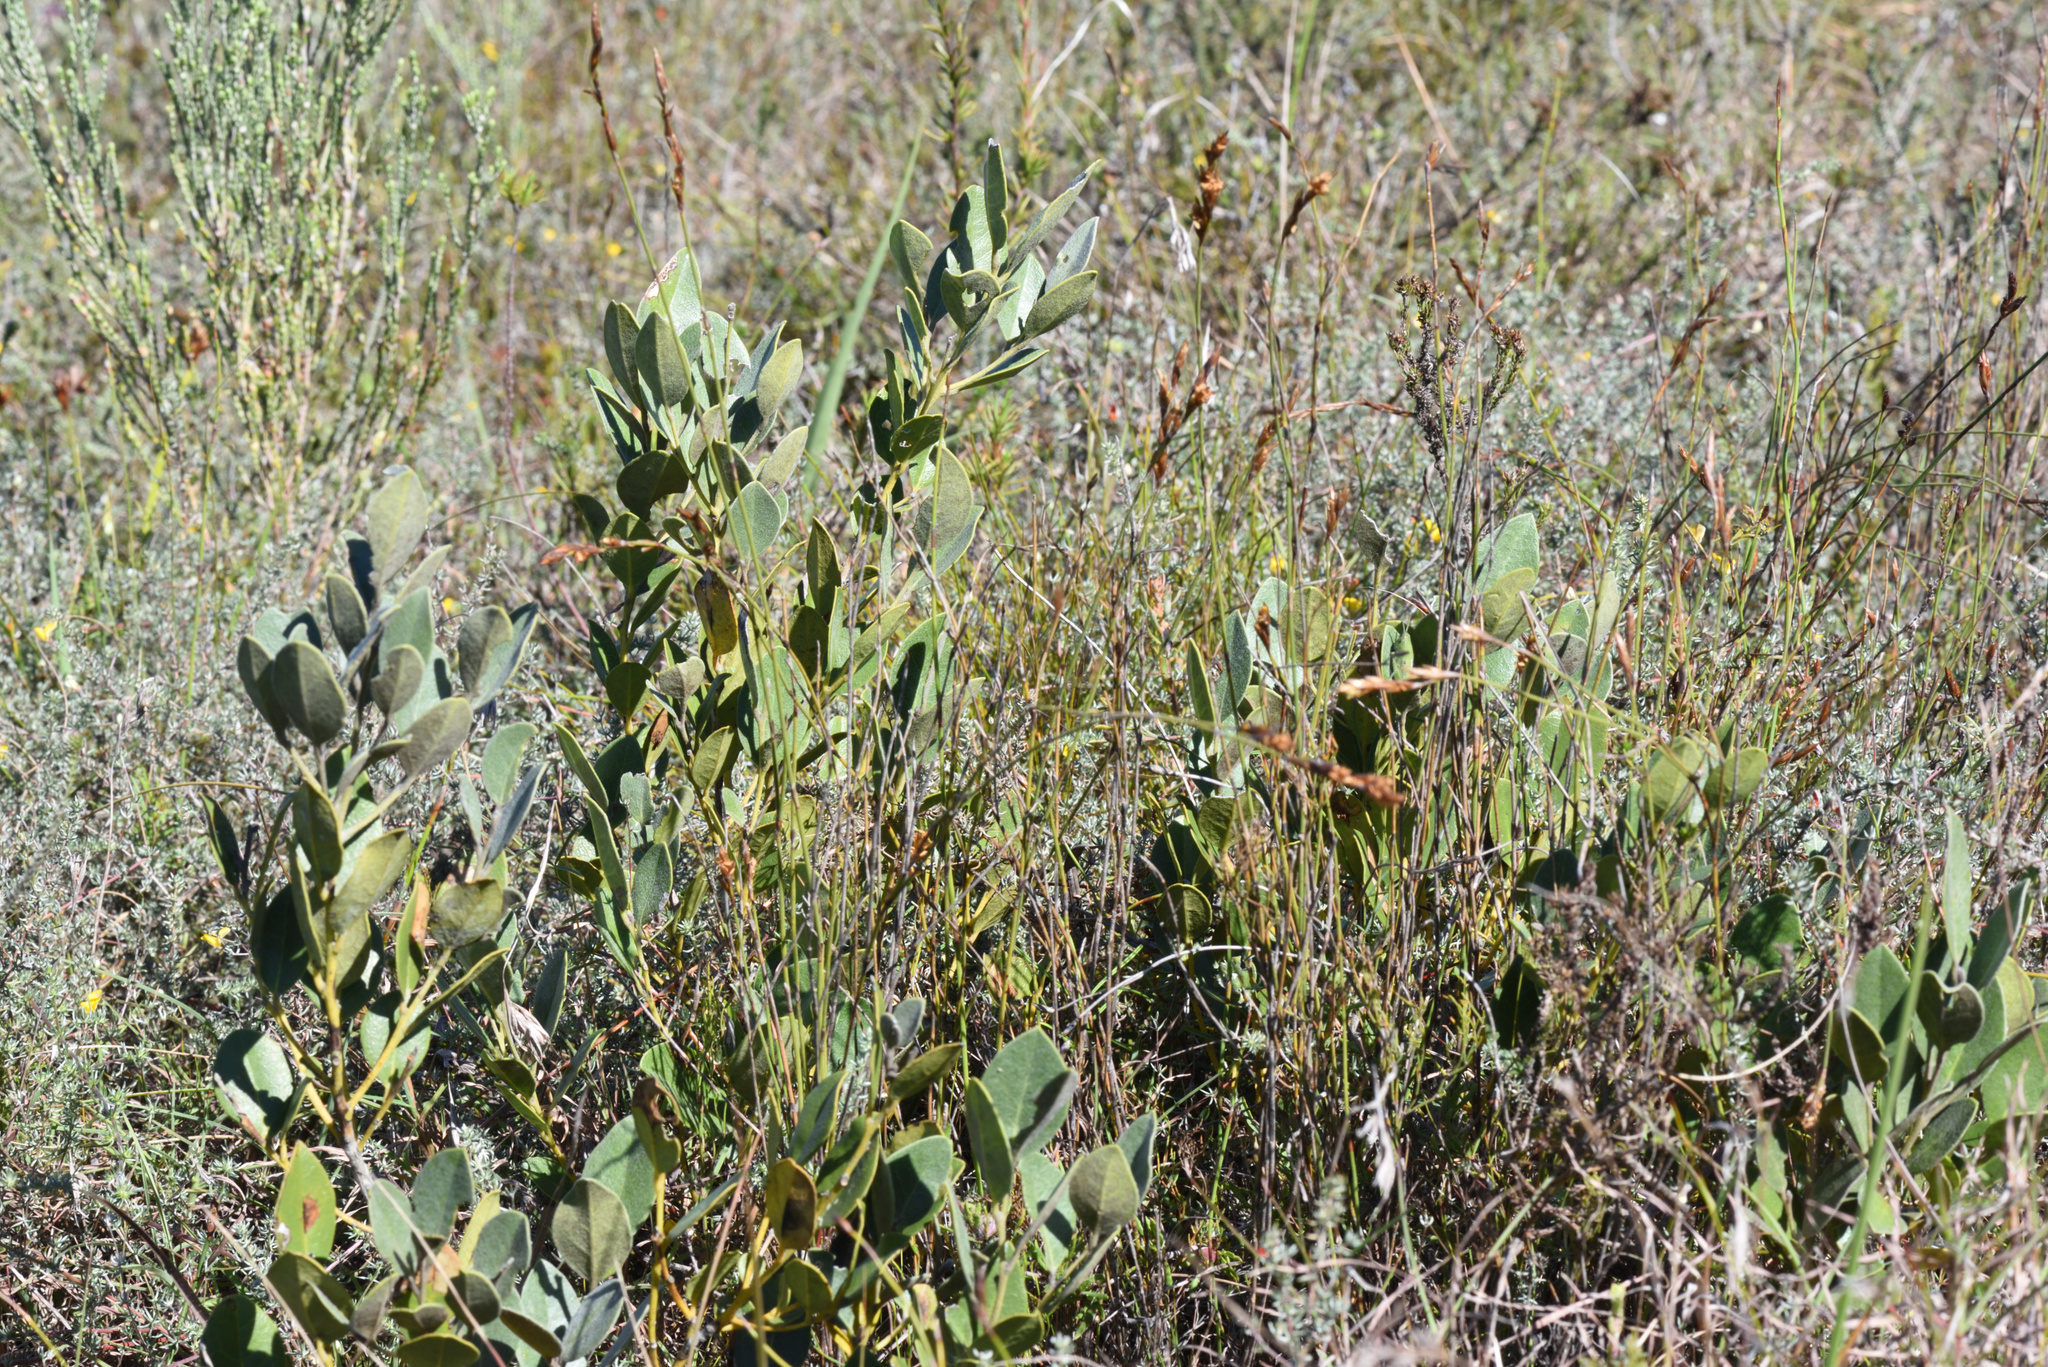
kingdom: Plantae
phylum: Tracheophyta
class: Magnoliopsida
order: Santalales
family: Santalaceae
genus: Osyris
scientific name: Osyris compressa
